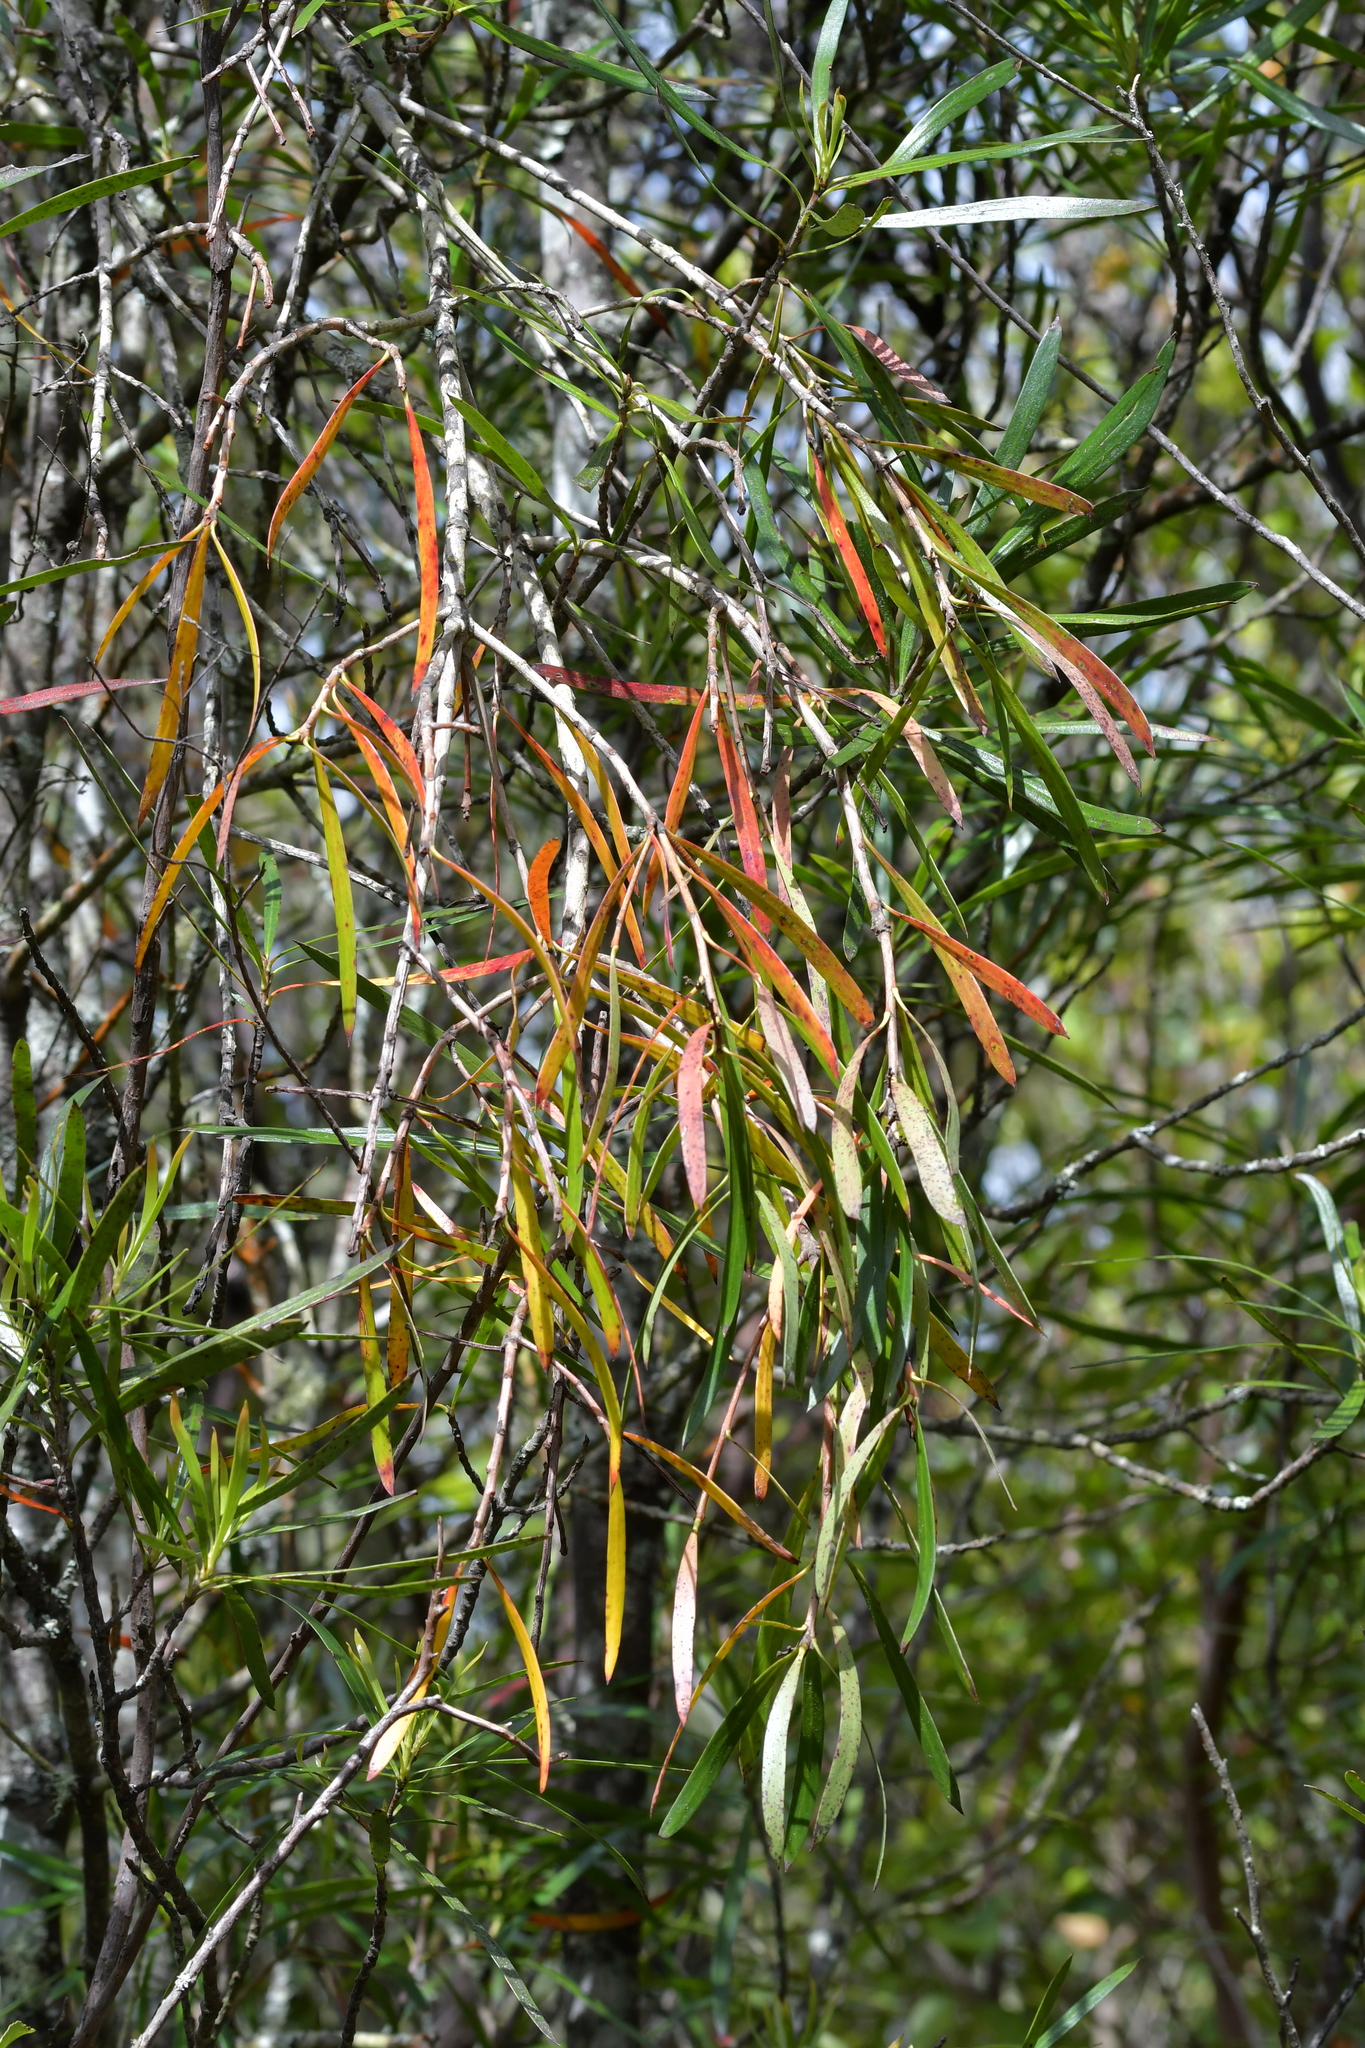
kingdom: Plantae
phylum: Tracheophyta
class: Magnoliopsida
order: Proteales
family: Proteaceae
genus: Toronia
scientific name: Toronia toru
